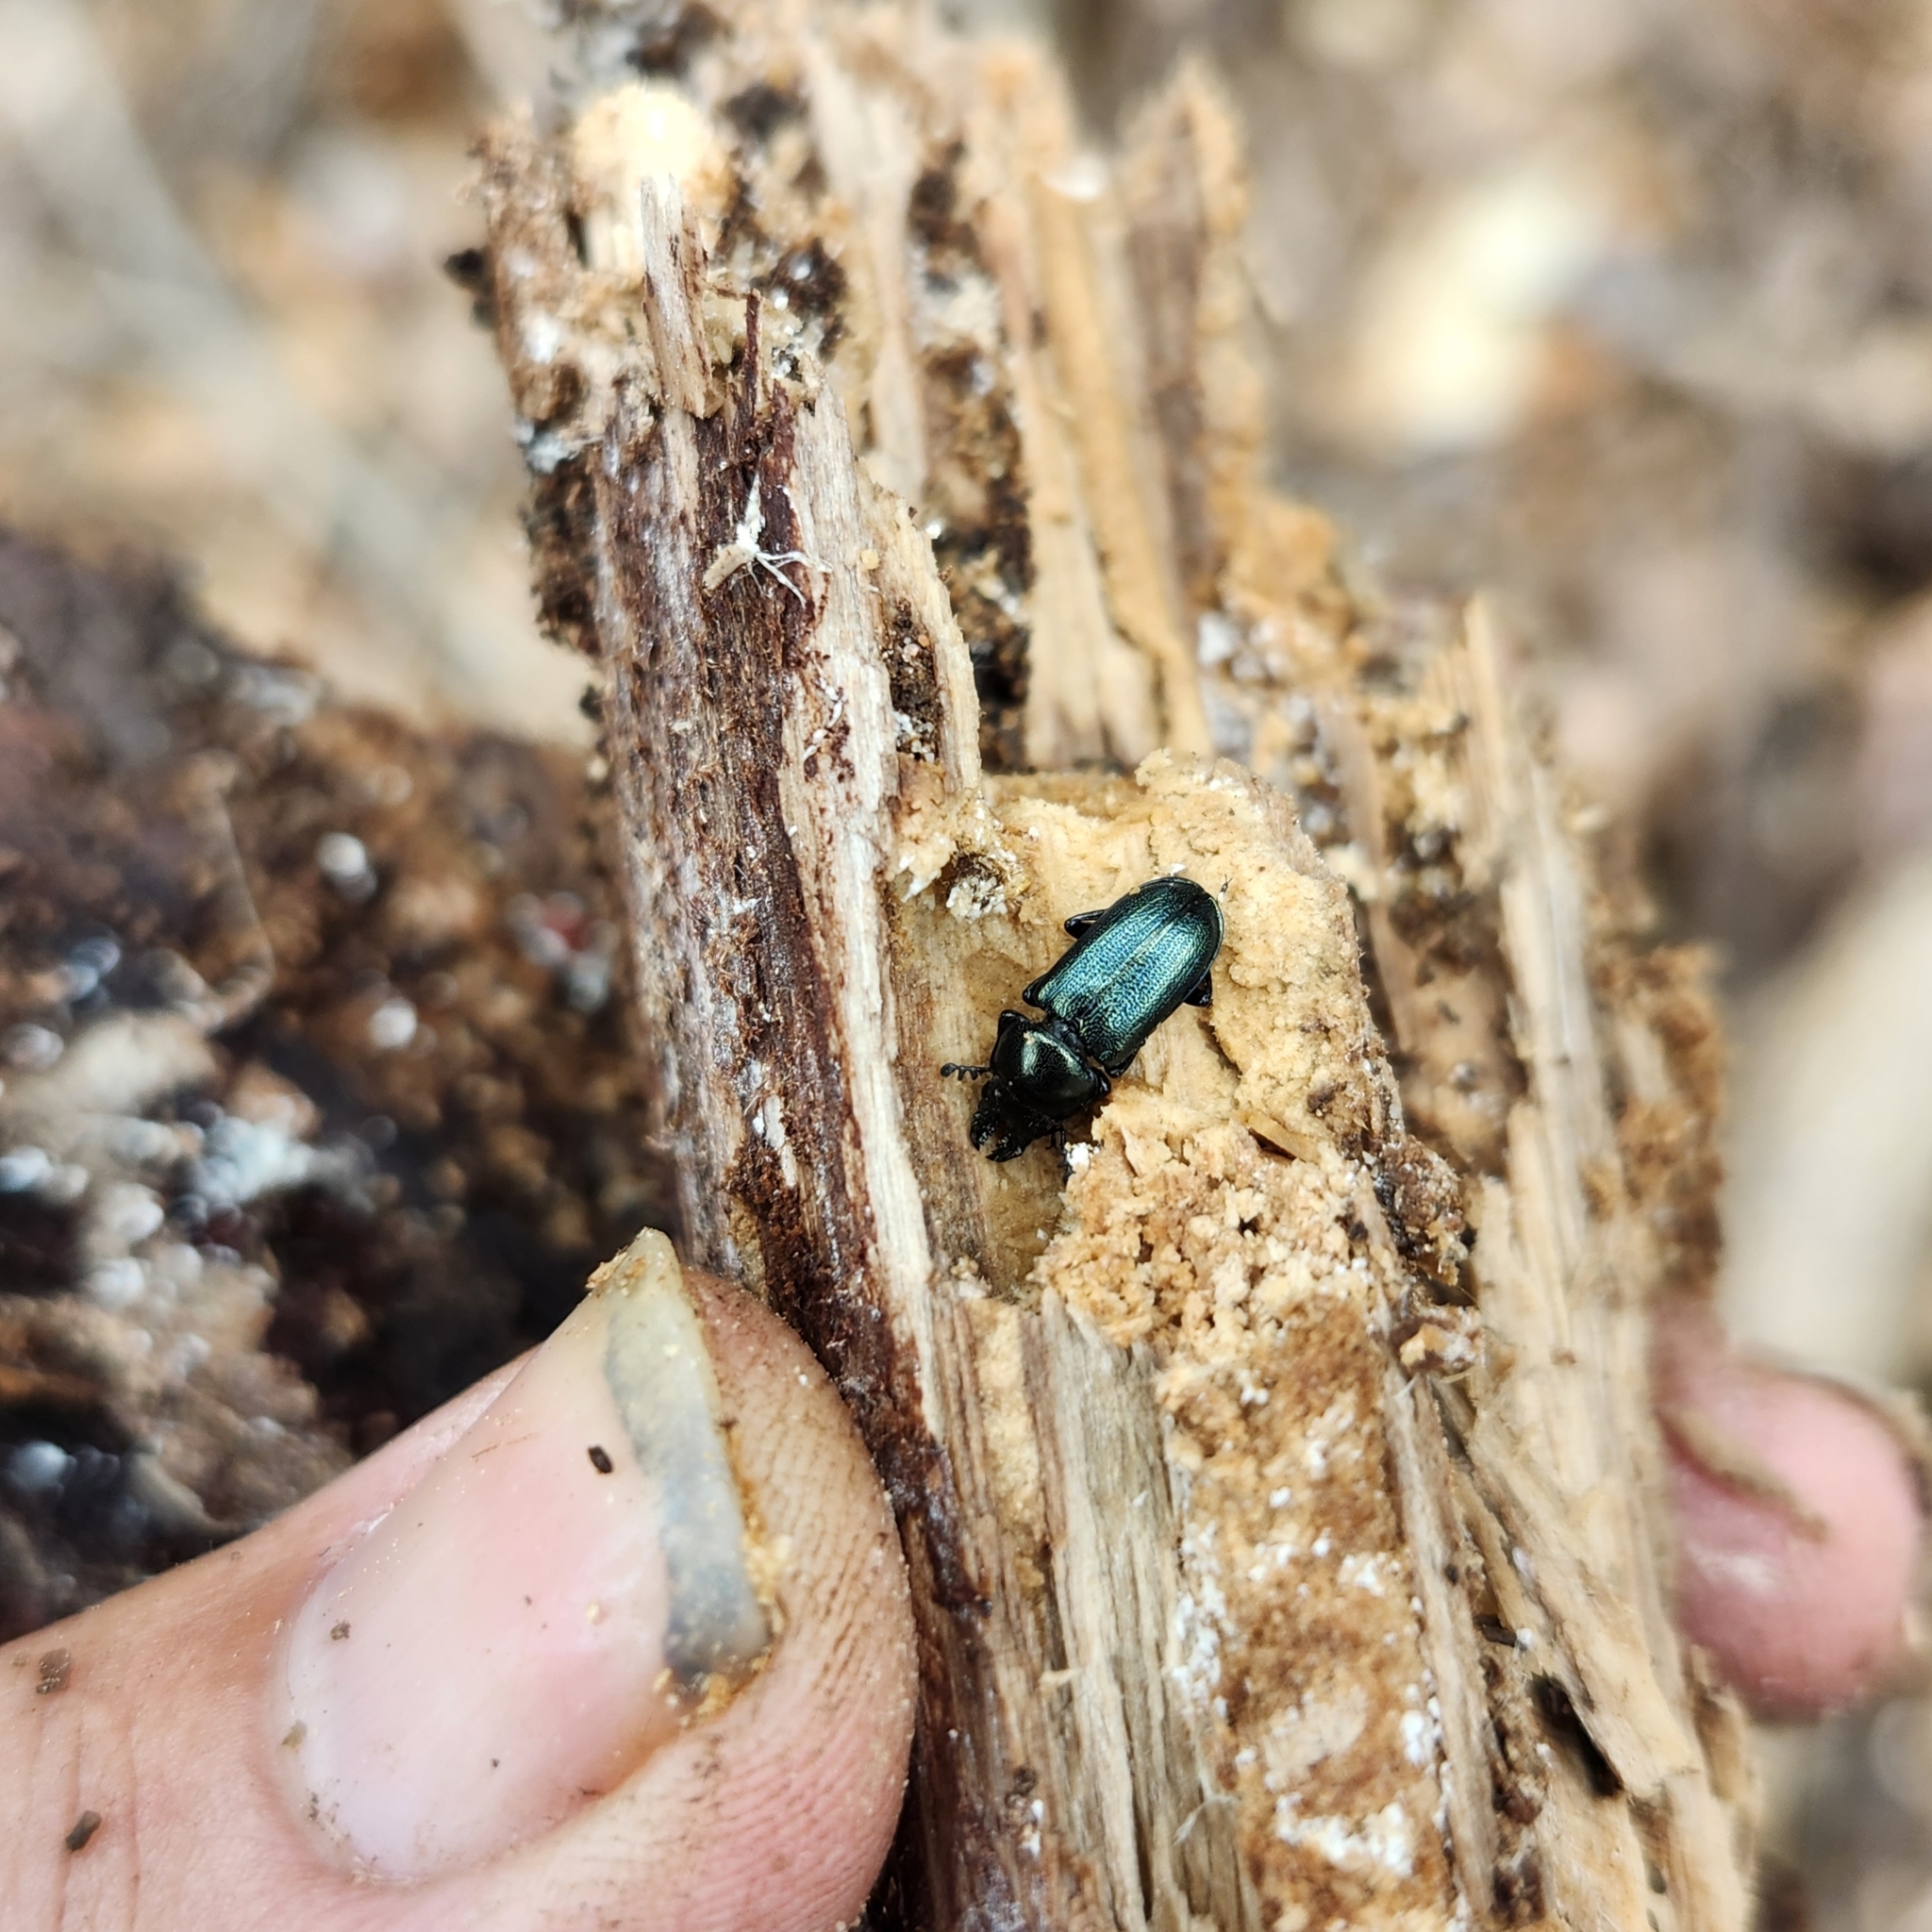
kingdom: Animalia
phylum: Arthropoda
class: Insecta
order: Coleoptera
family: Lucanidae
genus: Platycerus
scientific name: Platycerus quercus
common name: Oak stag beetle
